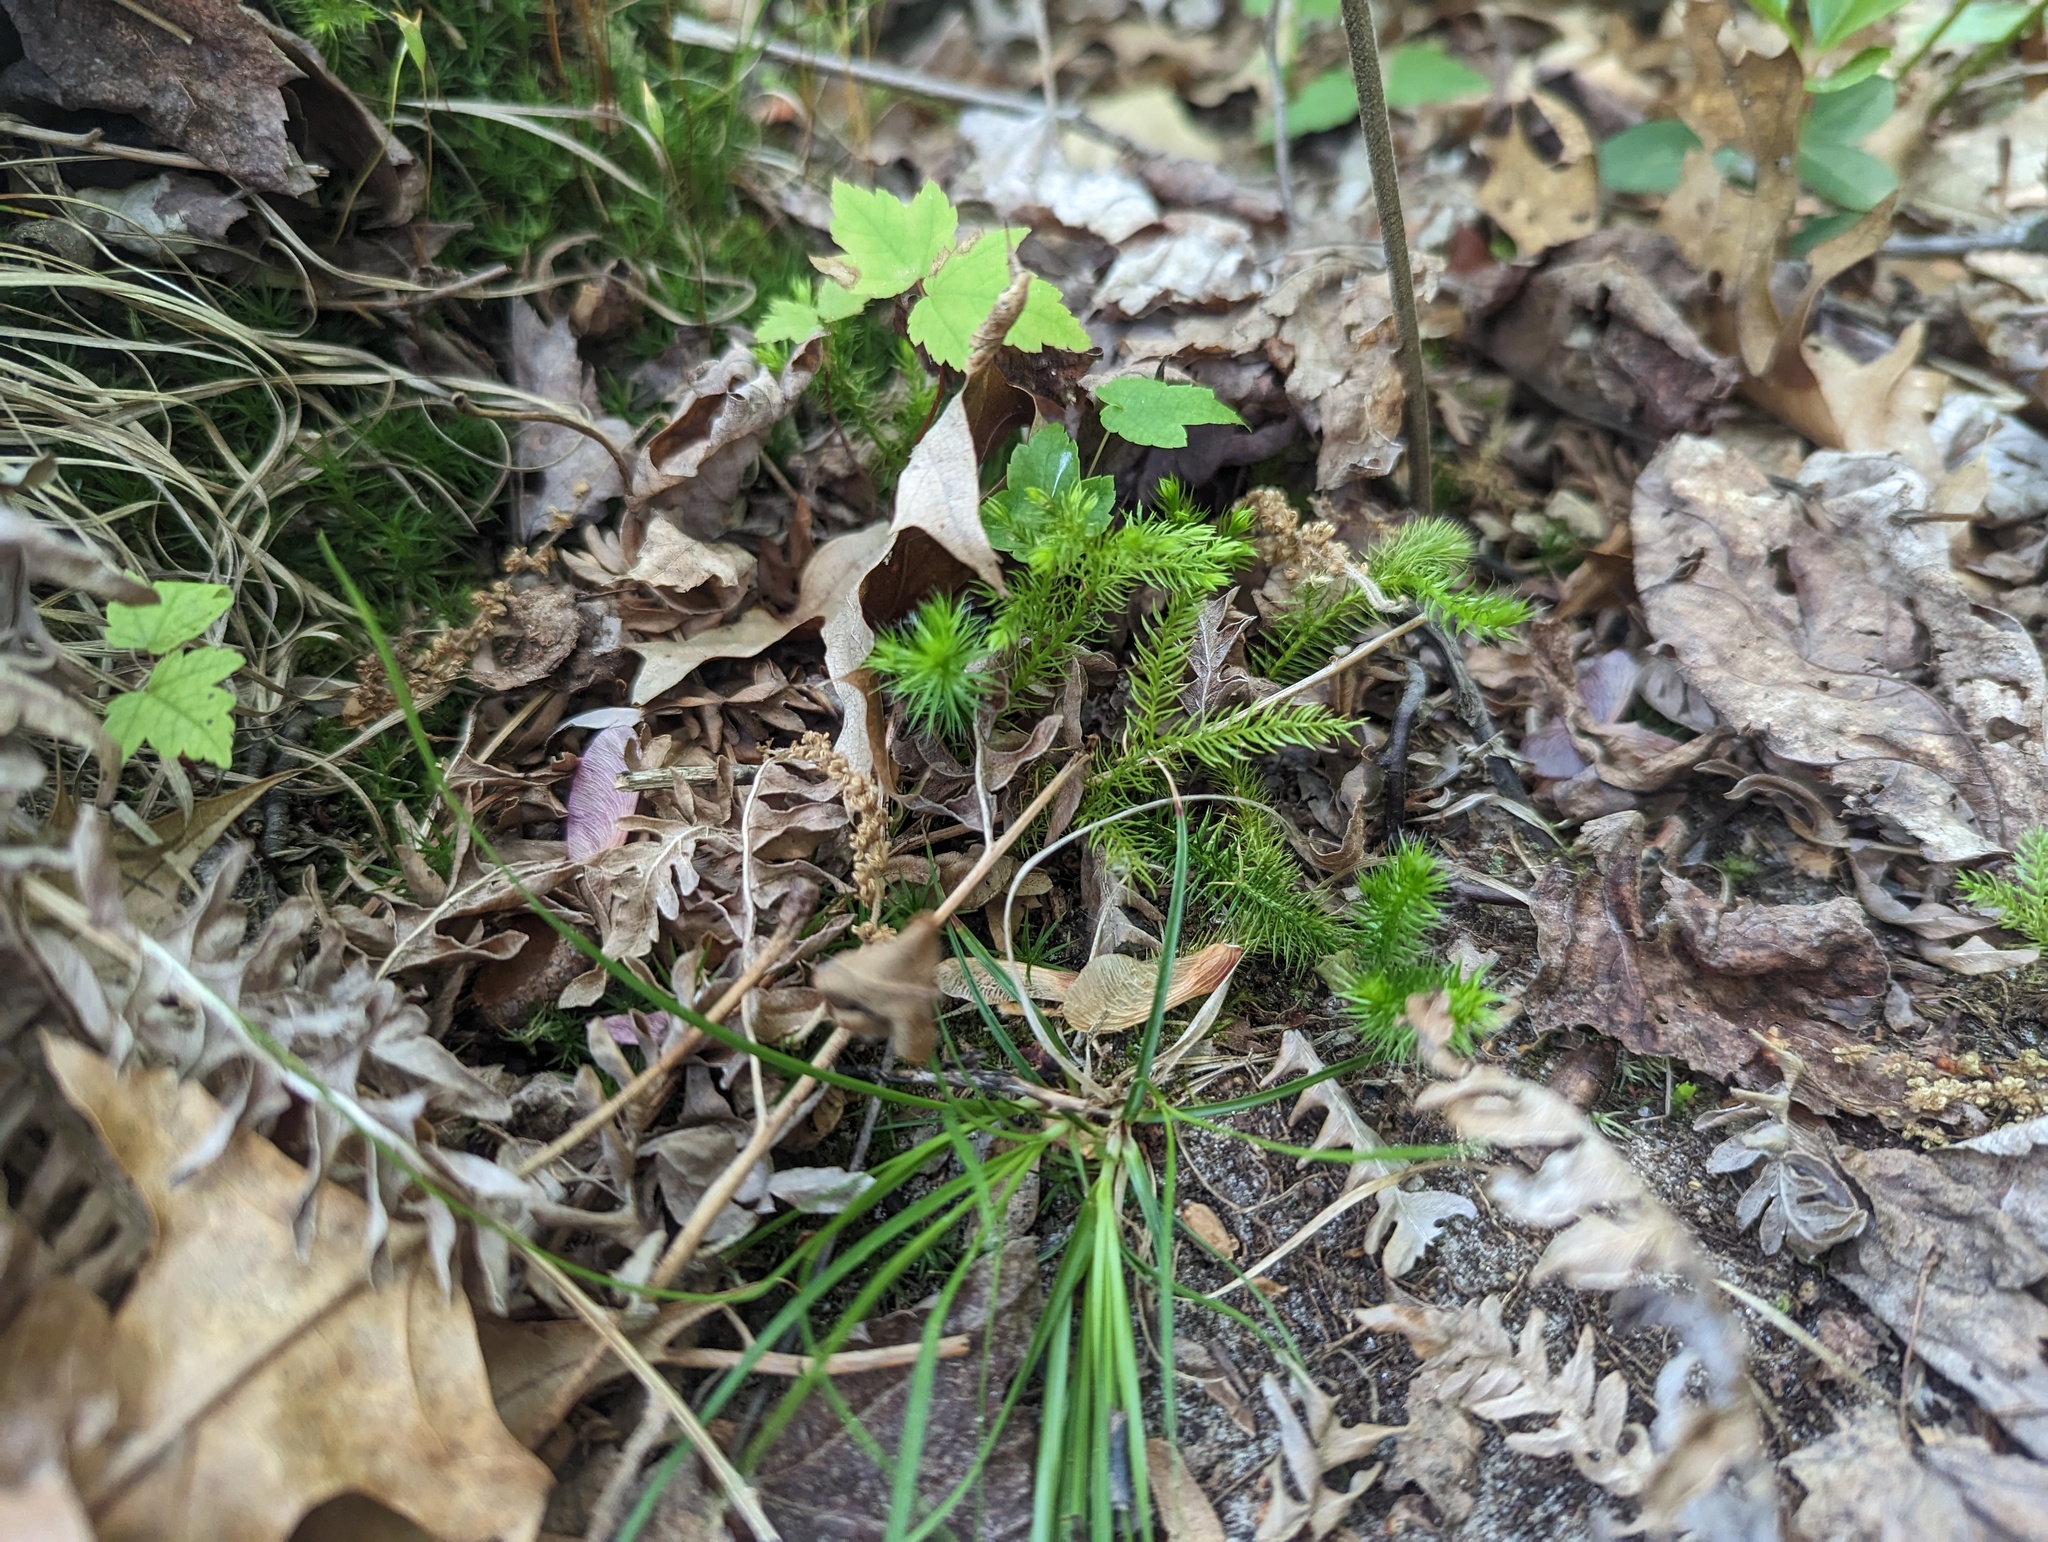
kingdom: Plantae
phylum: Tracheophyta
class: Lycopodiopsida
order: Lycopodiales
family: Lycopodiaceae
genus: Lycopodium
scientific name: Lycopodium clavatum
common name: Stag's-horn clubmoss
